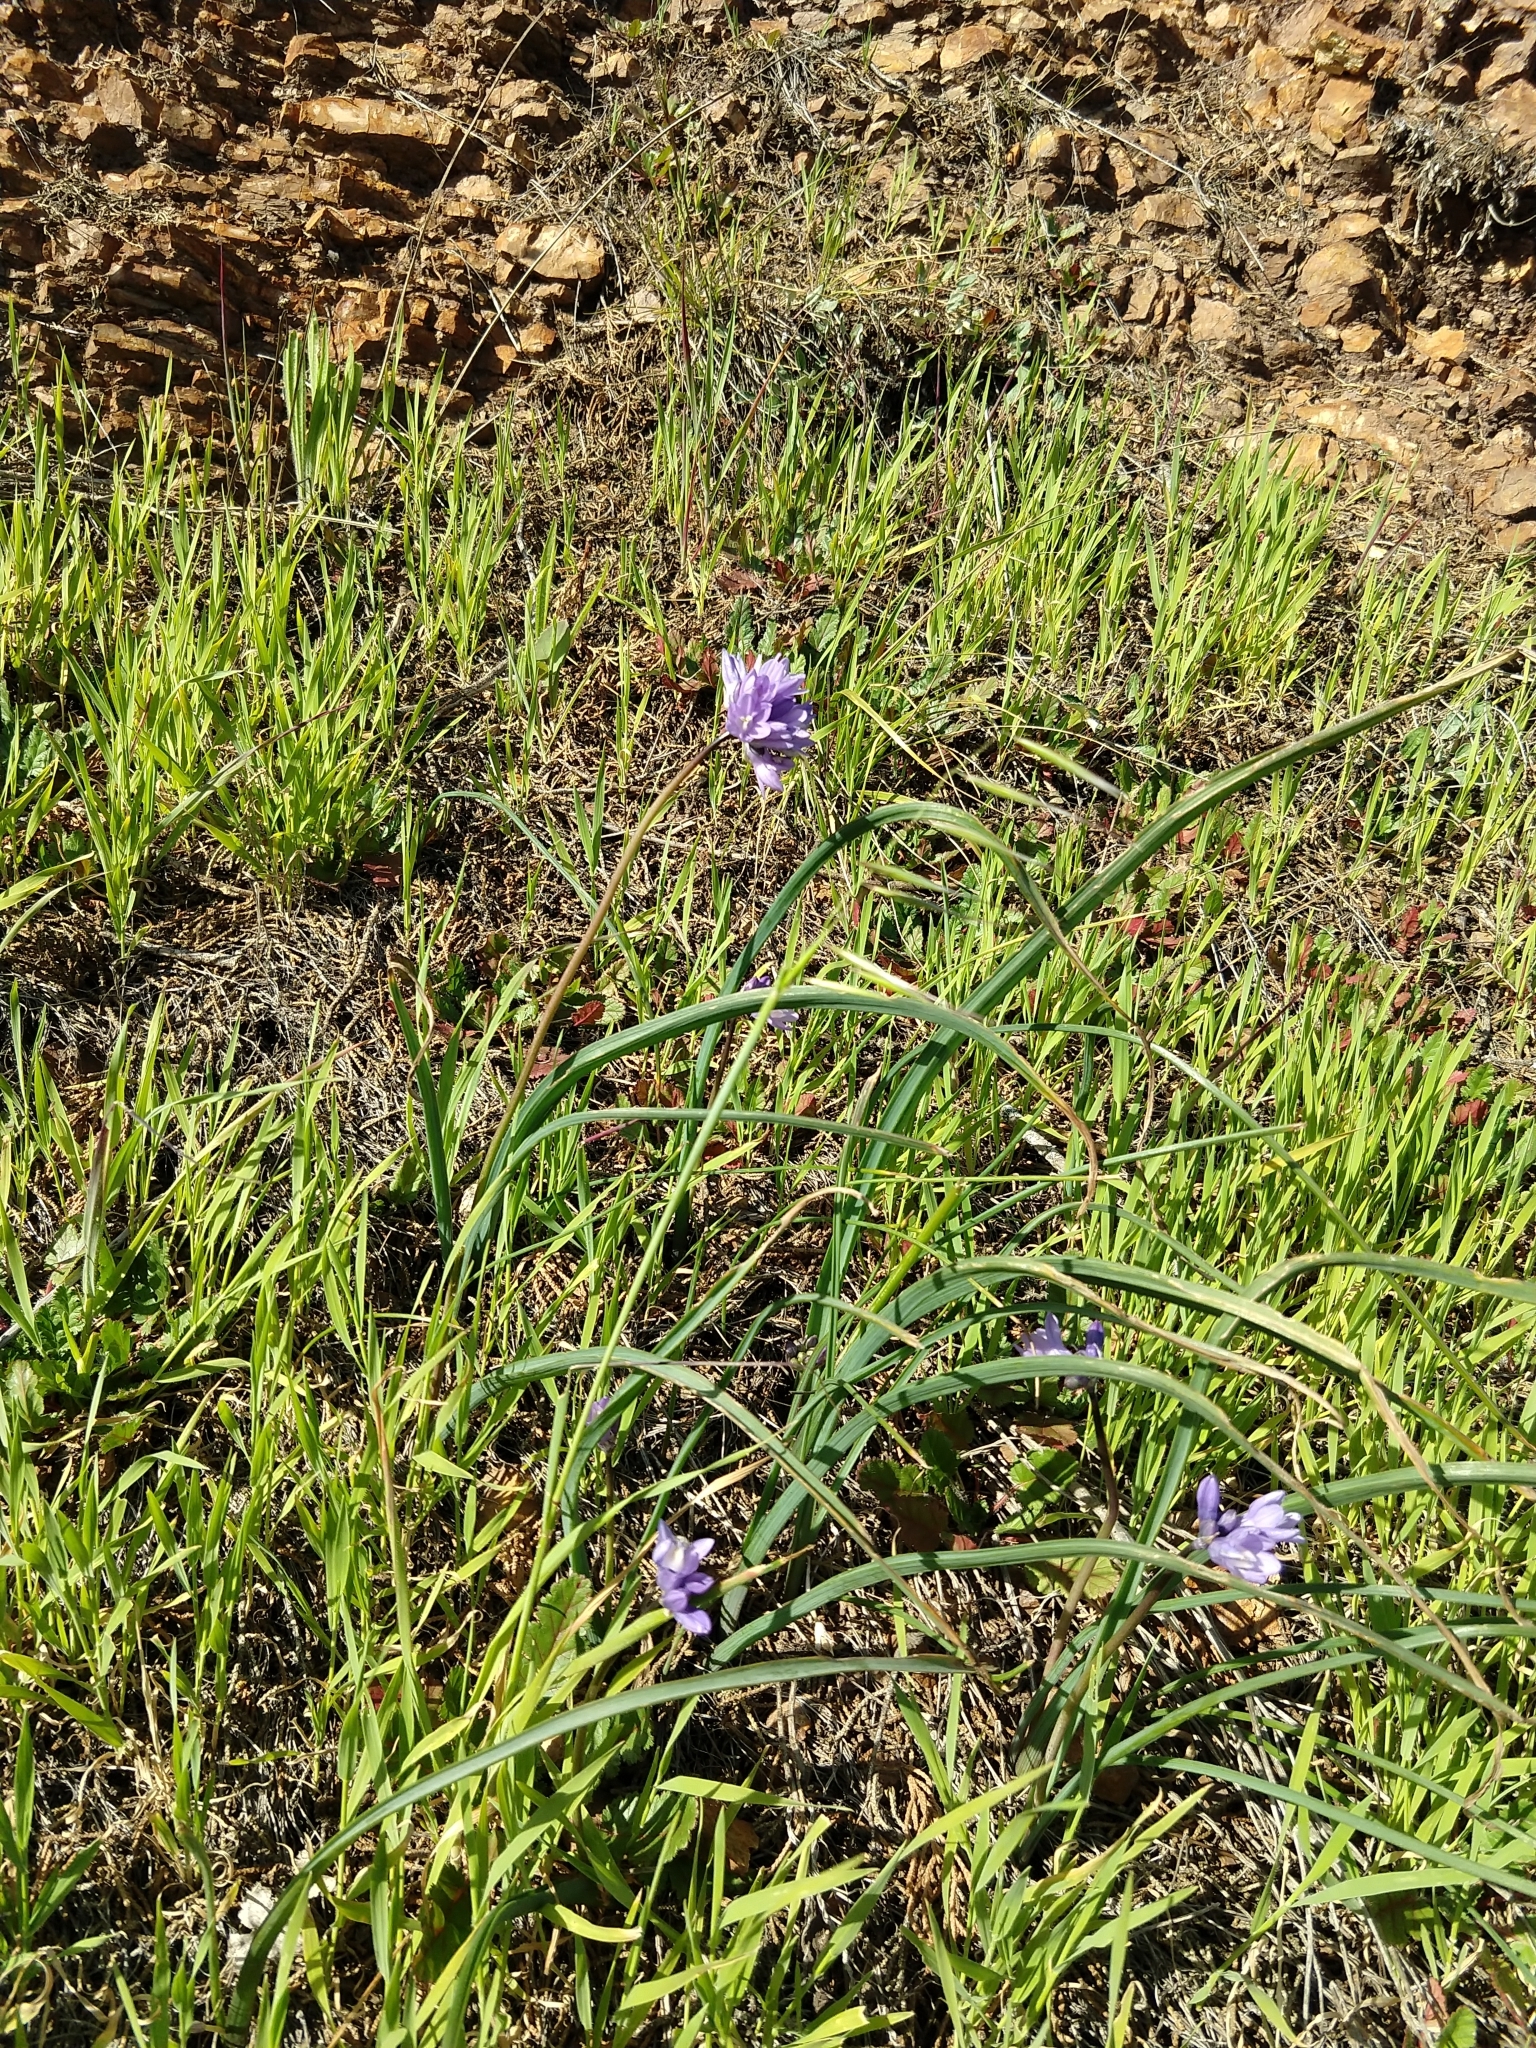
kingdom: Plantae
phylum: Tracheophyta
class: Liliopsida
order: Asparagales
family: Asparagaceae
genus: Dipterostemon
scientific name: Dipterostemon capitatus
